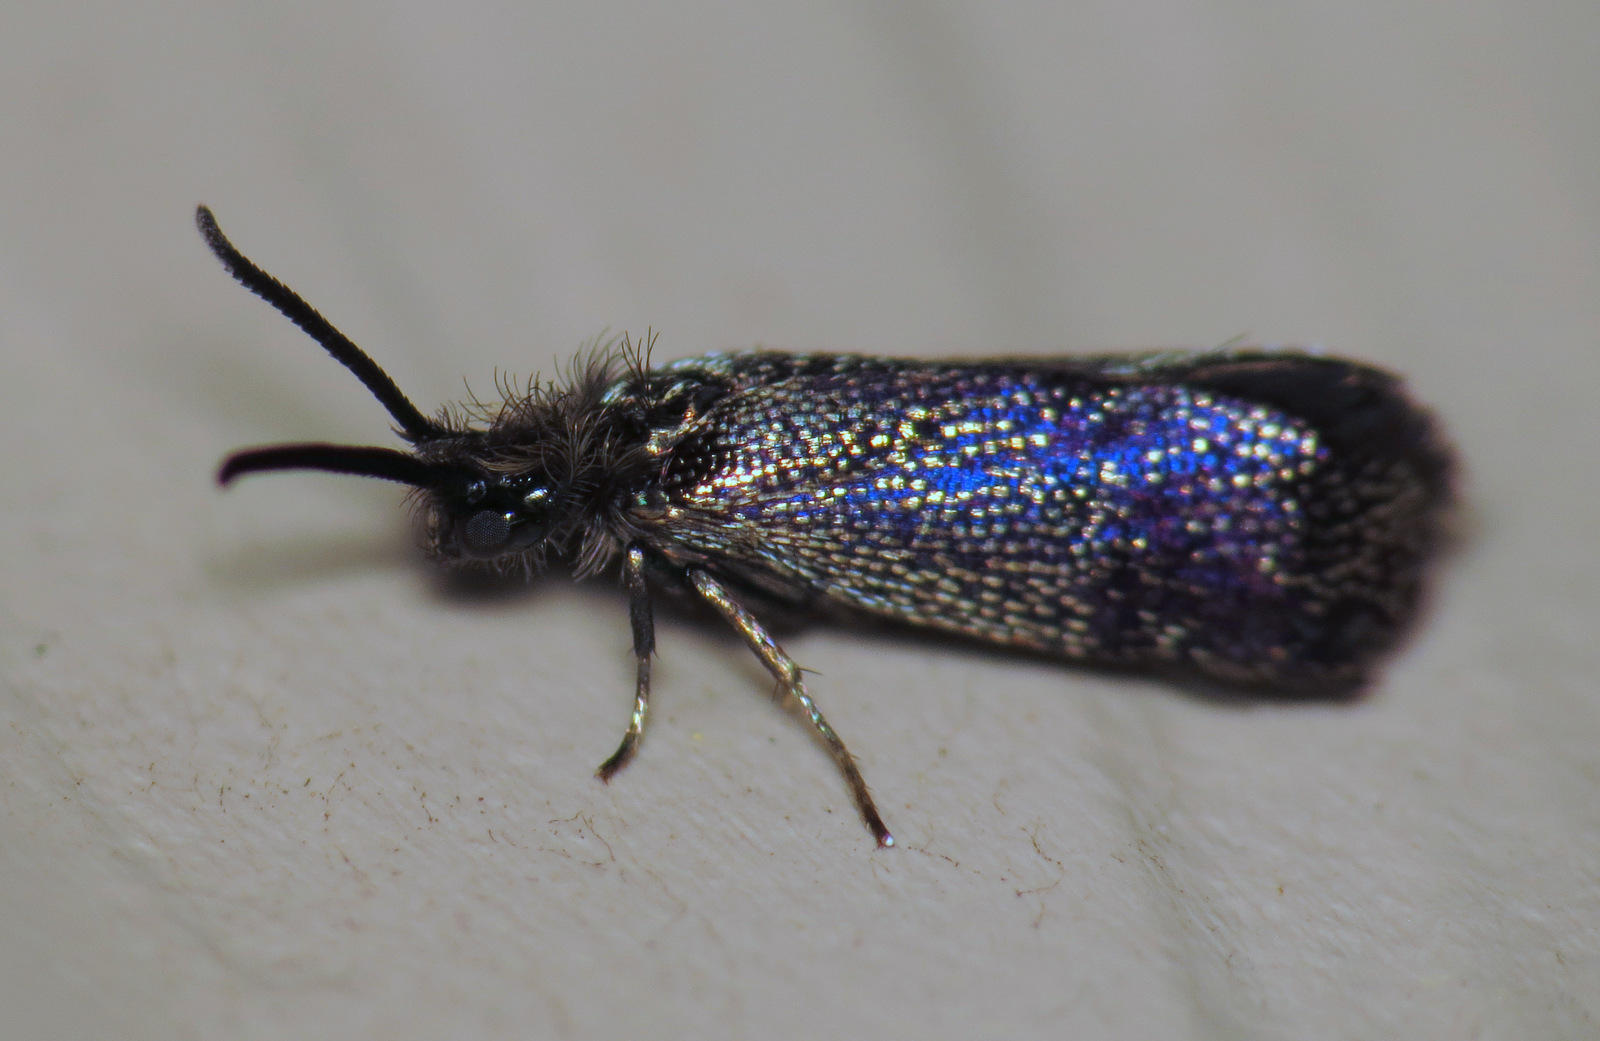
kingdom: Animalia
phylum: Arthropoda
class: Insecta
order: Lepidoptera
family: Eriocraniidae
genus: Eriocraniella
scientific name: Eriocraniella platyptera
